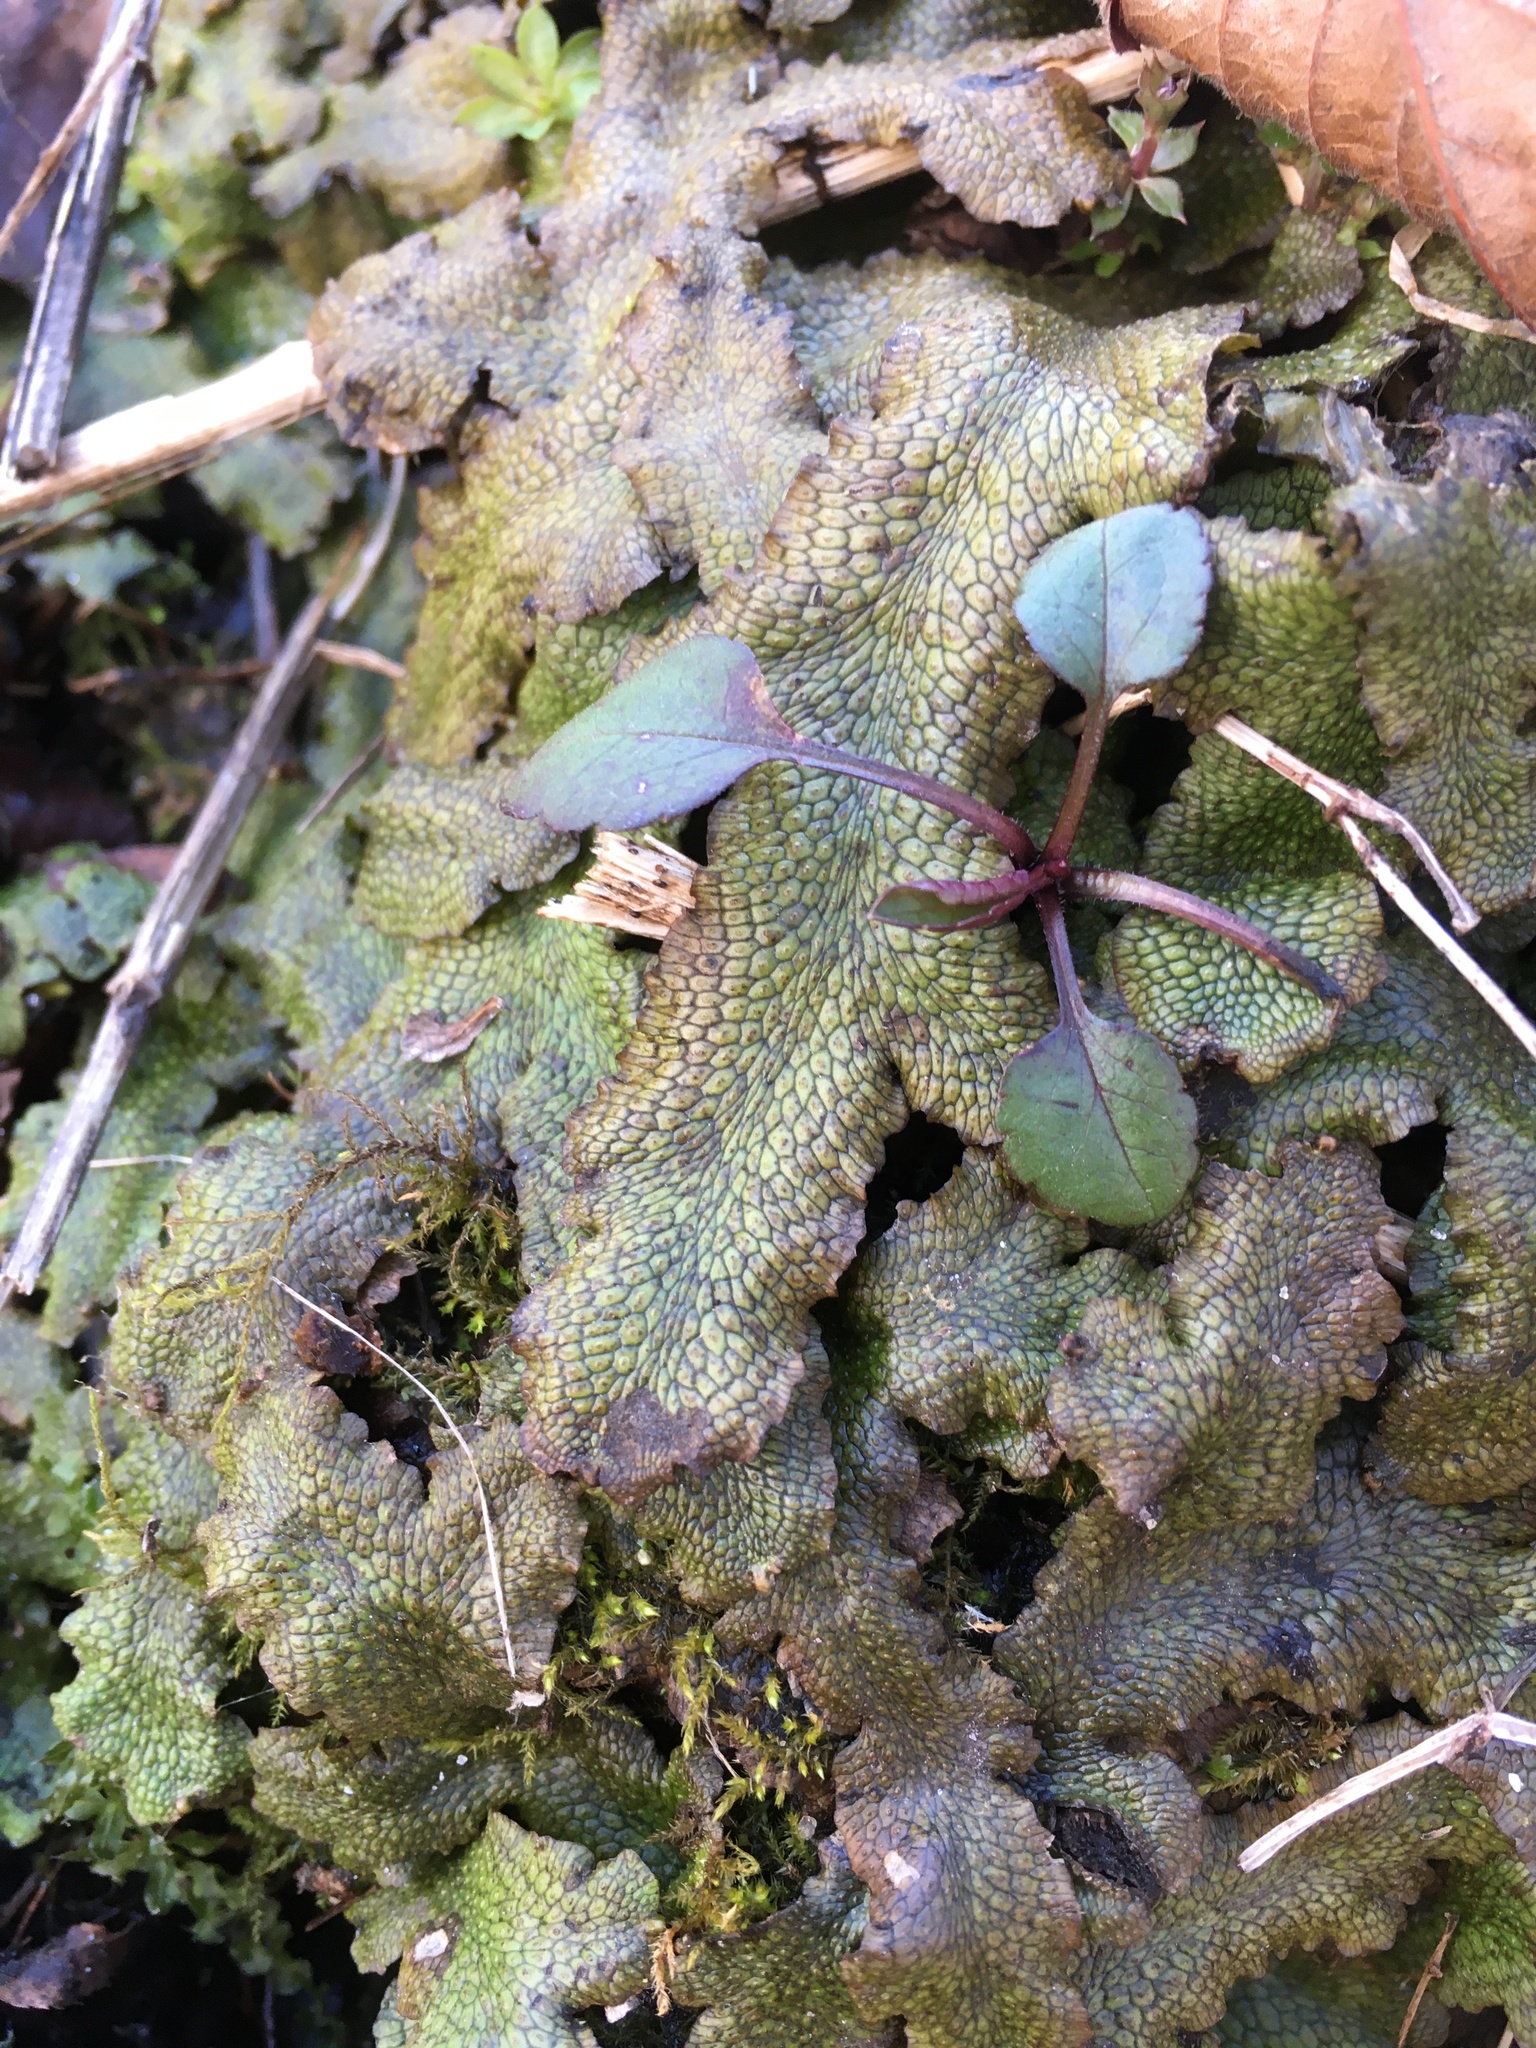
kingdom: Plantae
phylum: Marchantiophyta
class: Marchantiopsida
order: Marchantiales
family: Conocephalaceae
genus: Conocephalum
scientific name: Conocephalum salebrosum
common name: Cat-tongue liverwort
